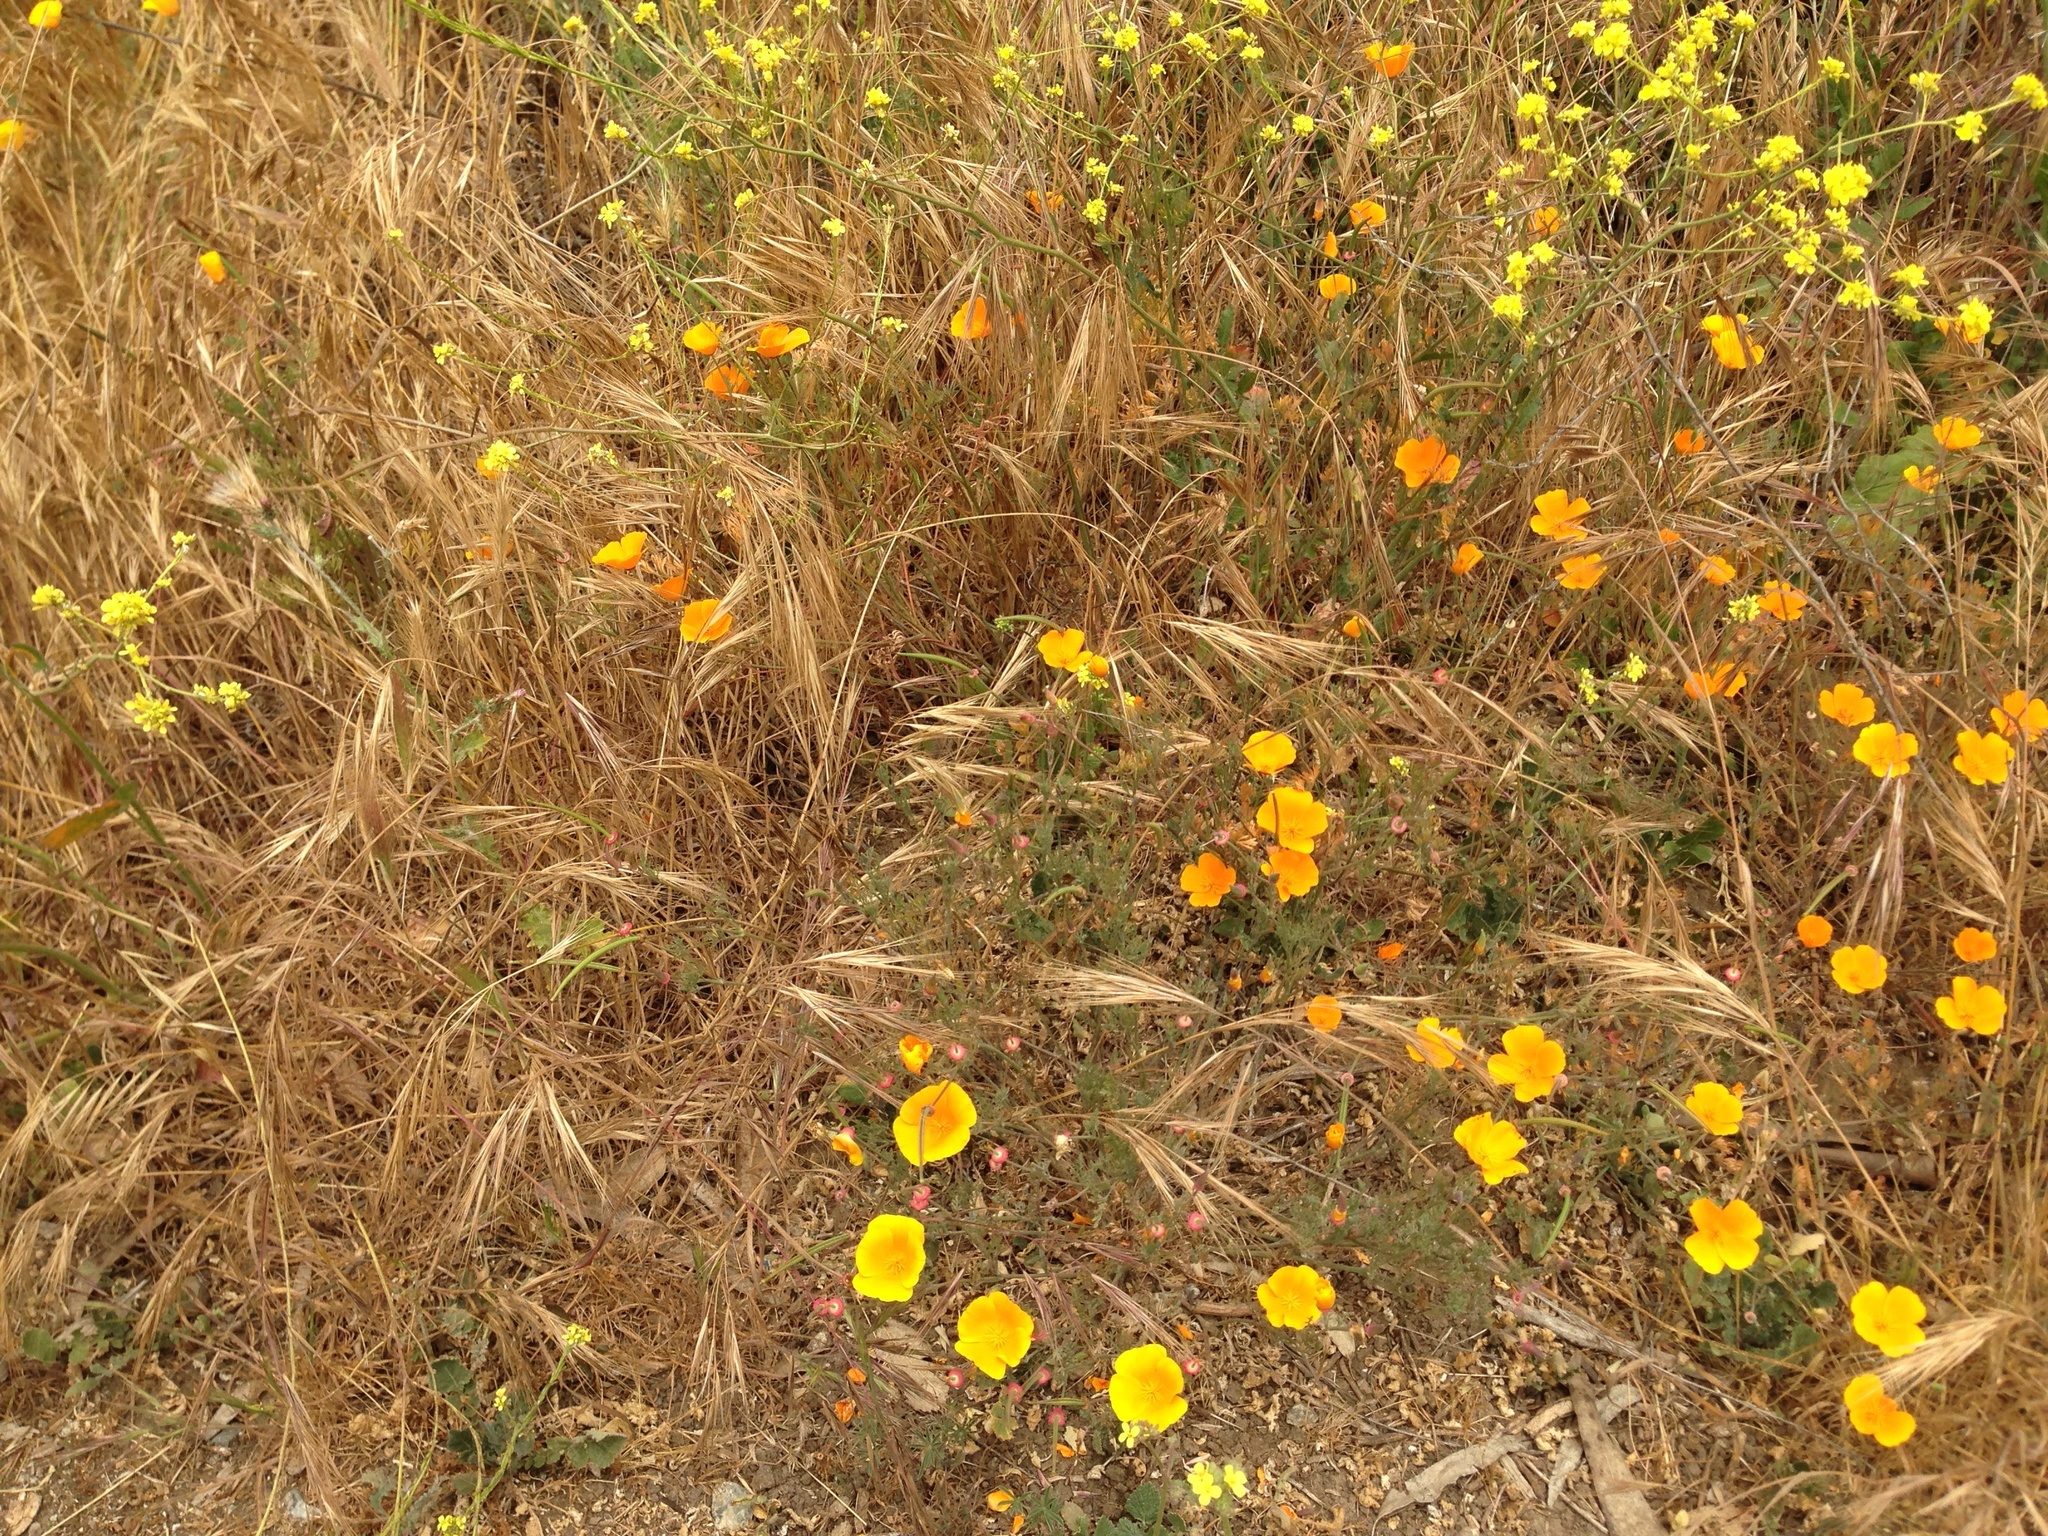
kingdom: Plantae
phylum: Tracheophyta
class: Magnoliopsida
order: Ranunculales
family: Papaveraceae
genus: Eschscholzia
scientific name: Eschscholzia californica
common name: California poppy
